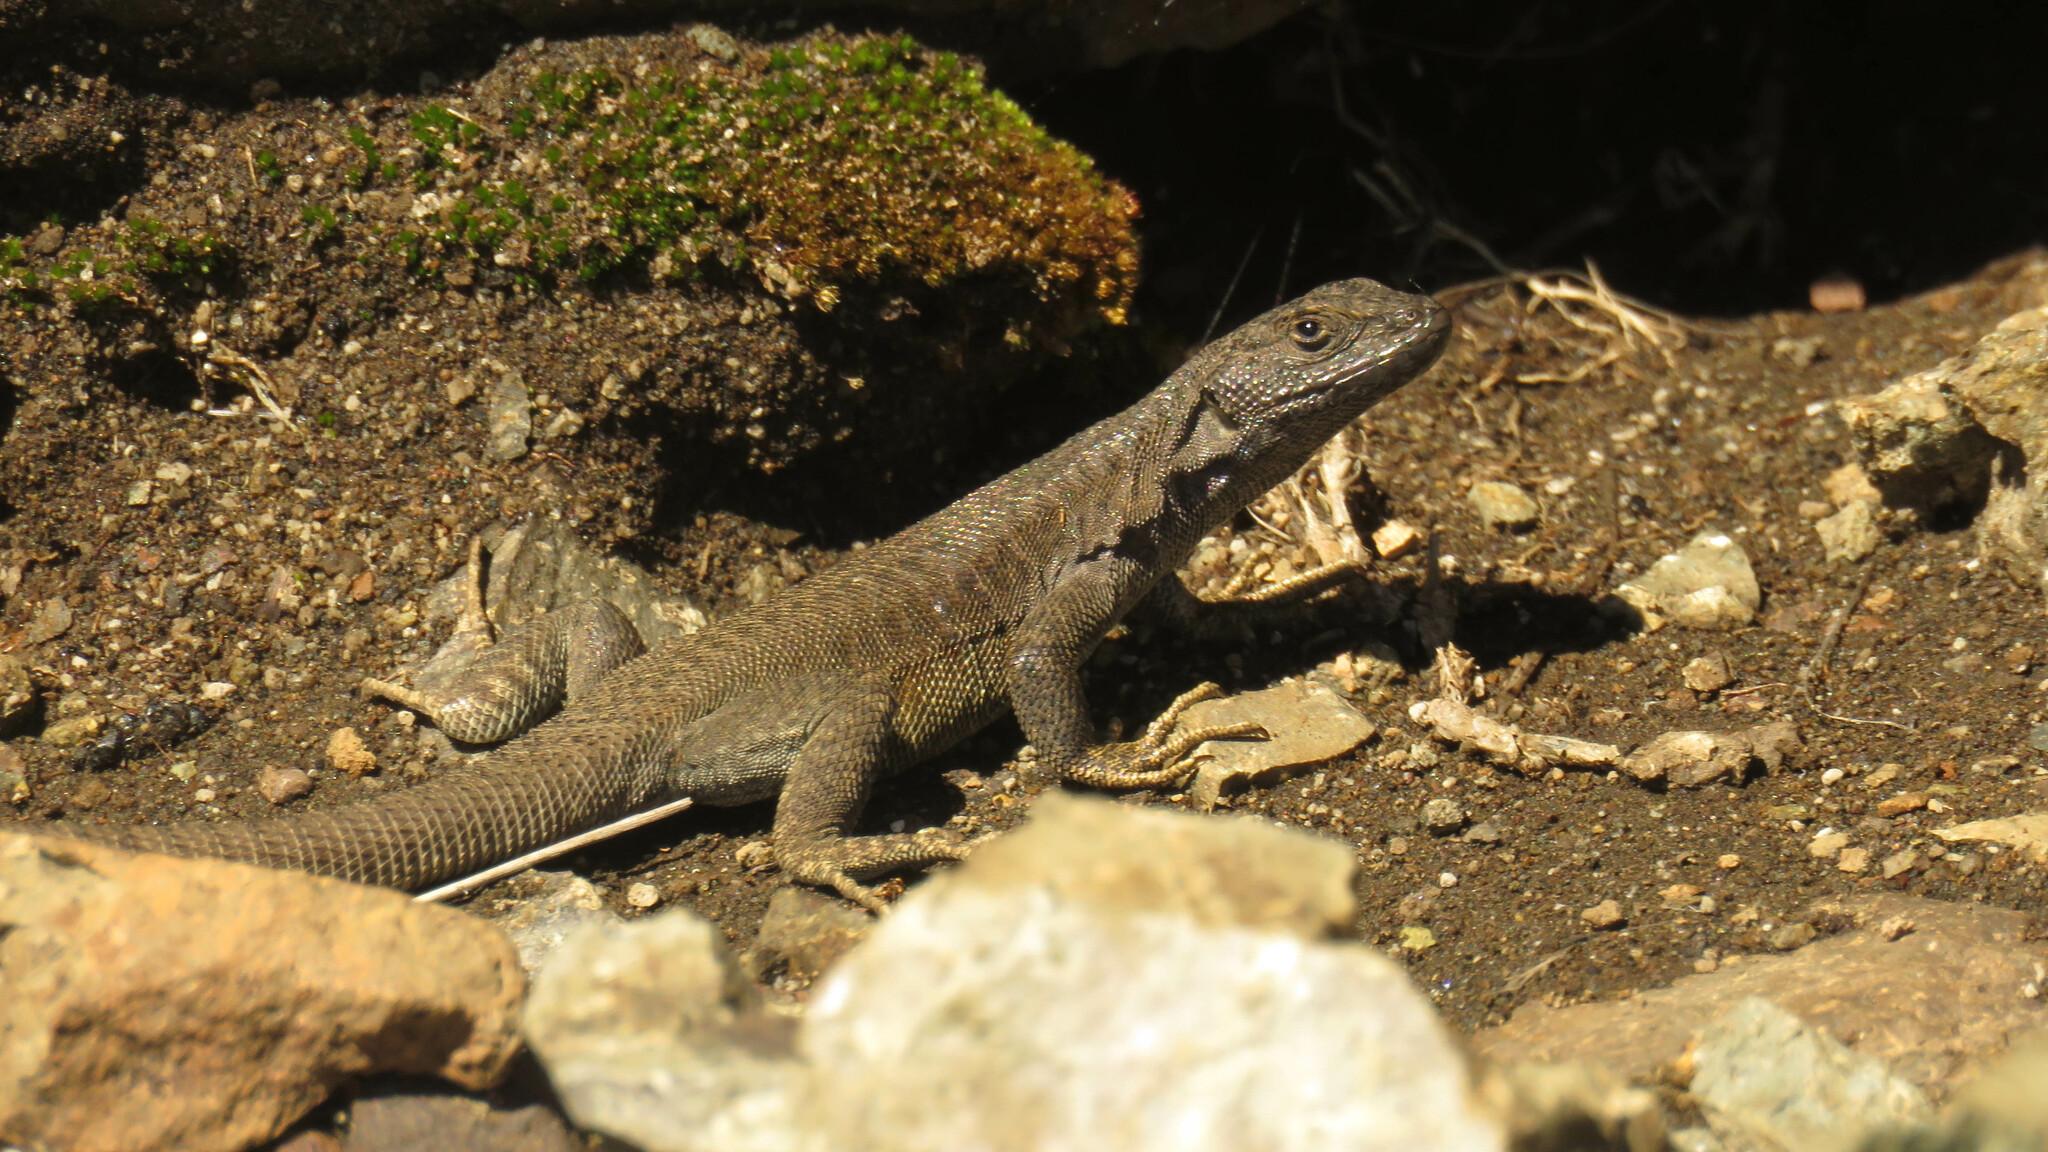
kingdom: Animalia
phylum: Chordata
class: Squamata
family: Liolaemidae
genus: Liolaemus
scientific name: Liolaemus elongatus
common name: Elongate tree iguana
